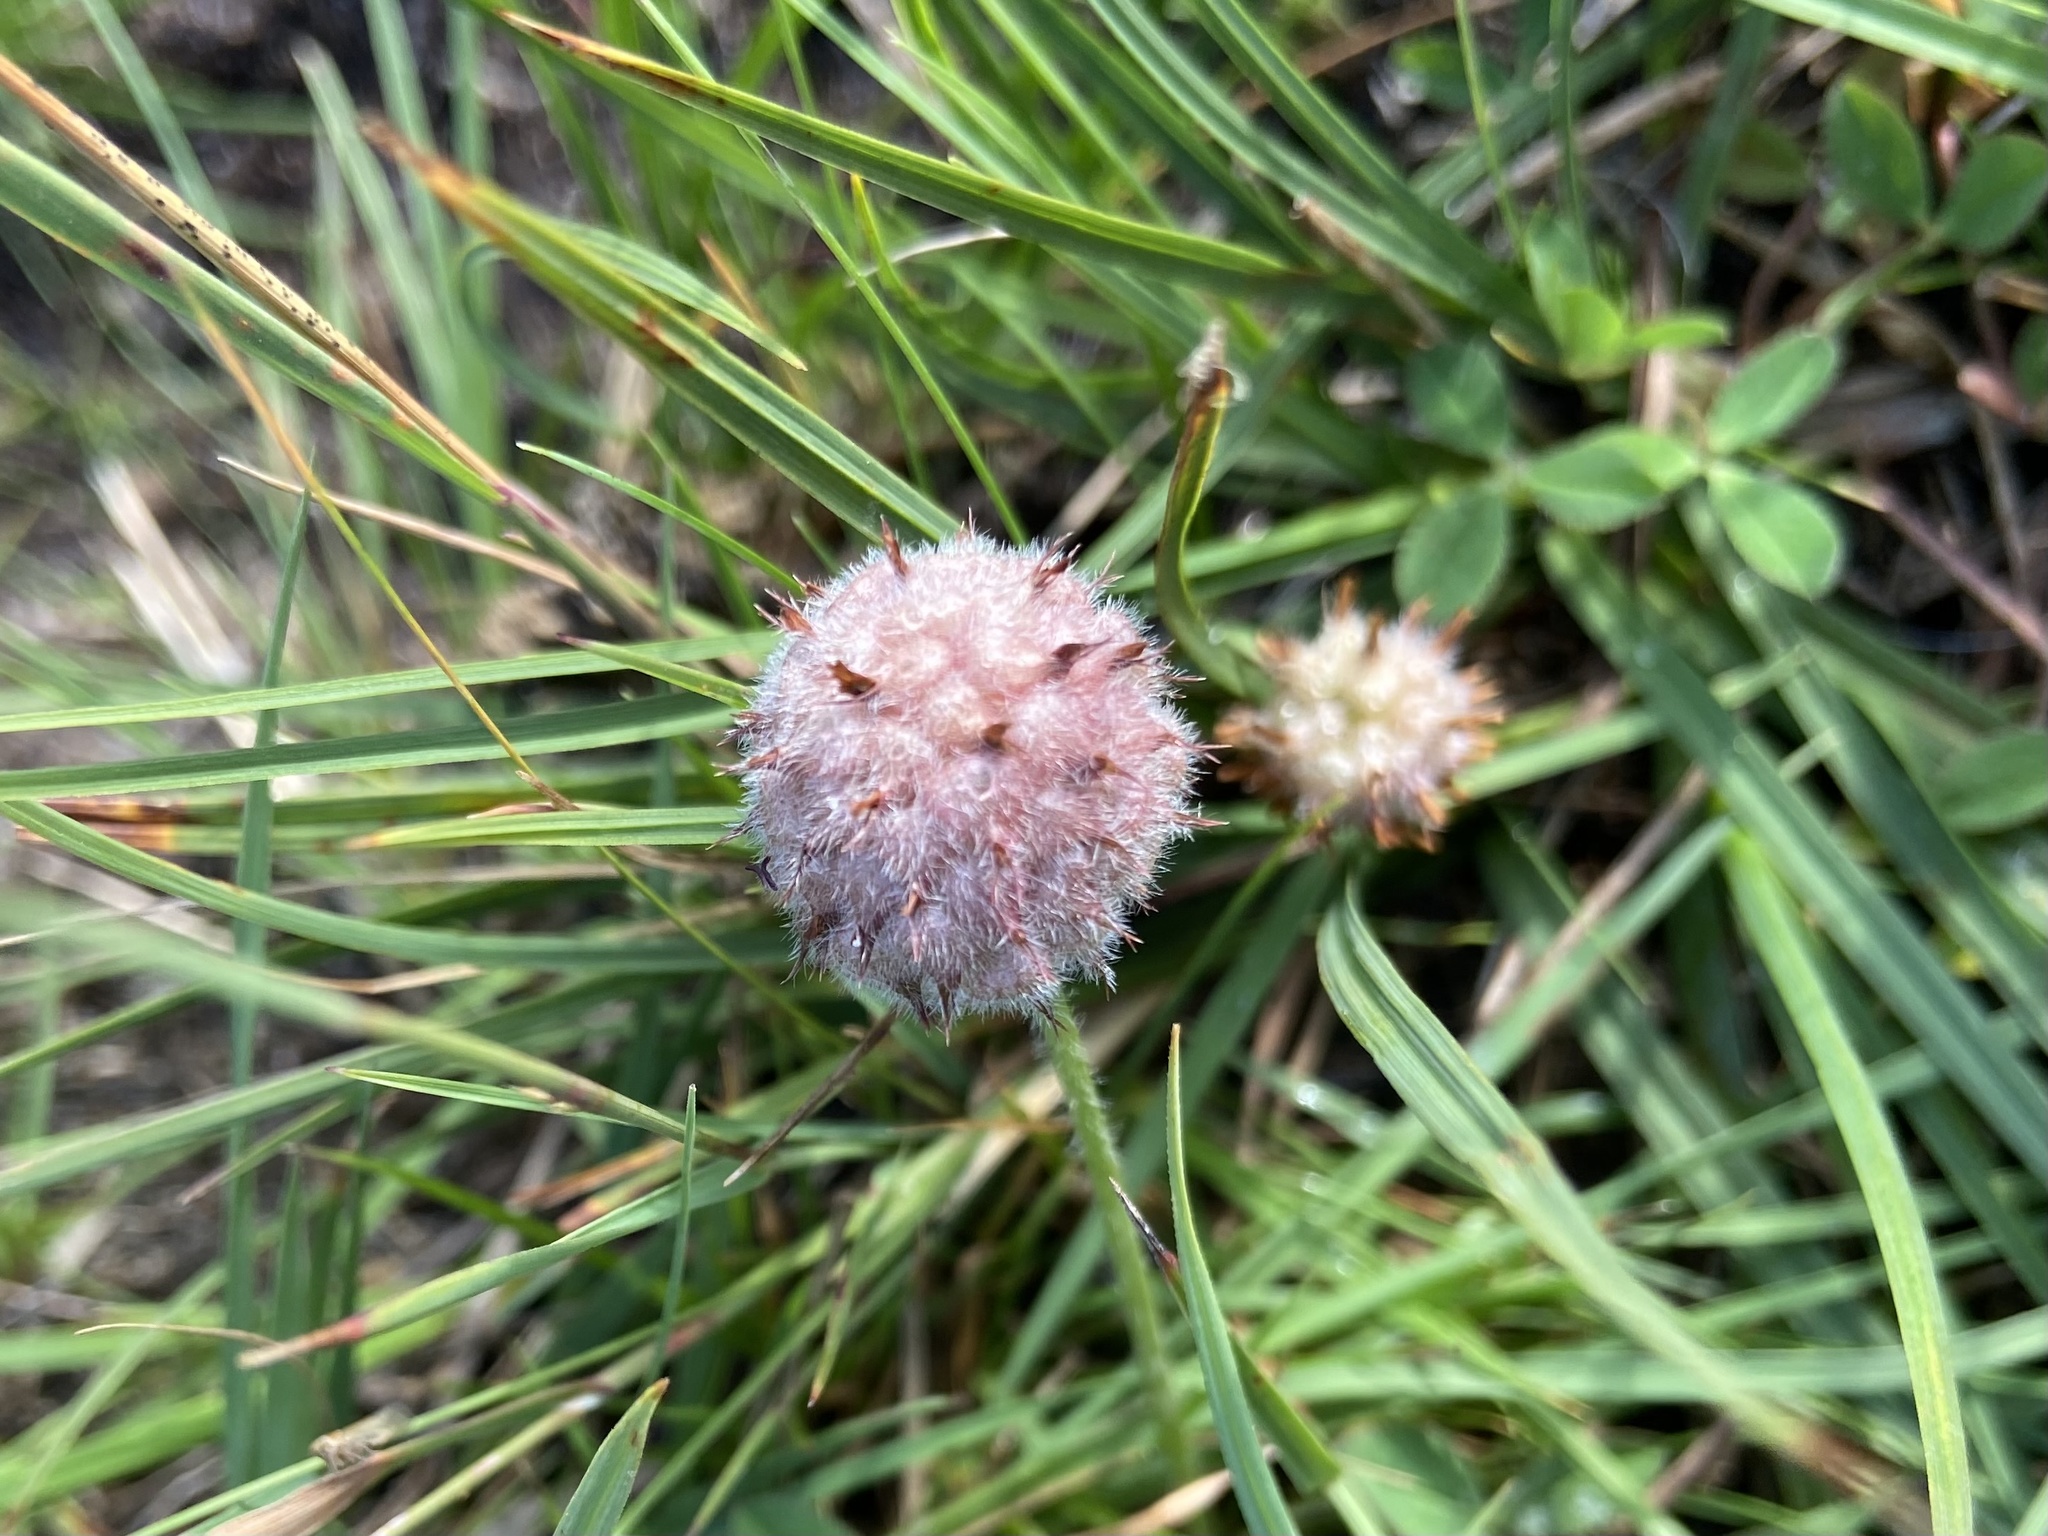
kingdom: Plantae
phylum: Tracheophyta
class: Magnoliopsida
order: Fabales
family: Fabaceae
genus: Trifolium
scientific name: Trifolium fragiferum
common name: Strawberry clover
